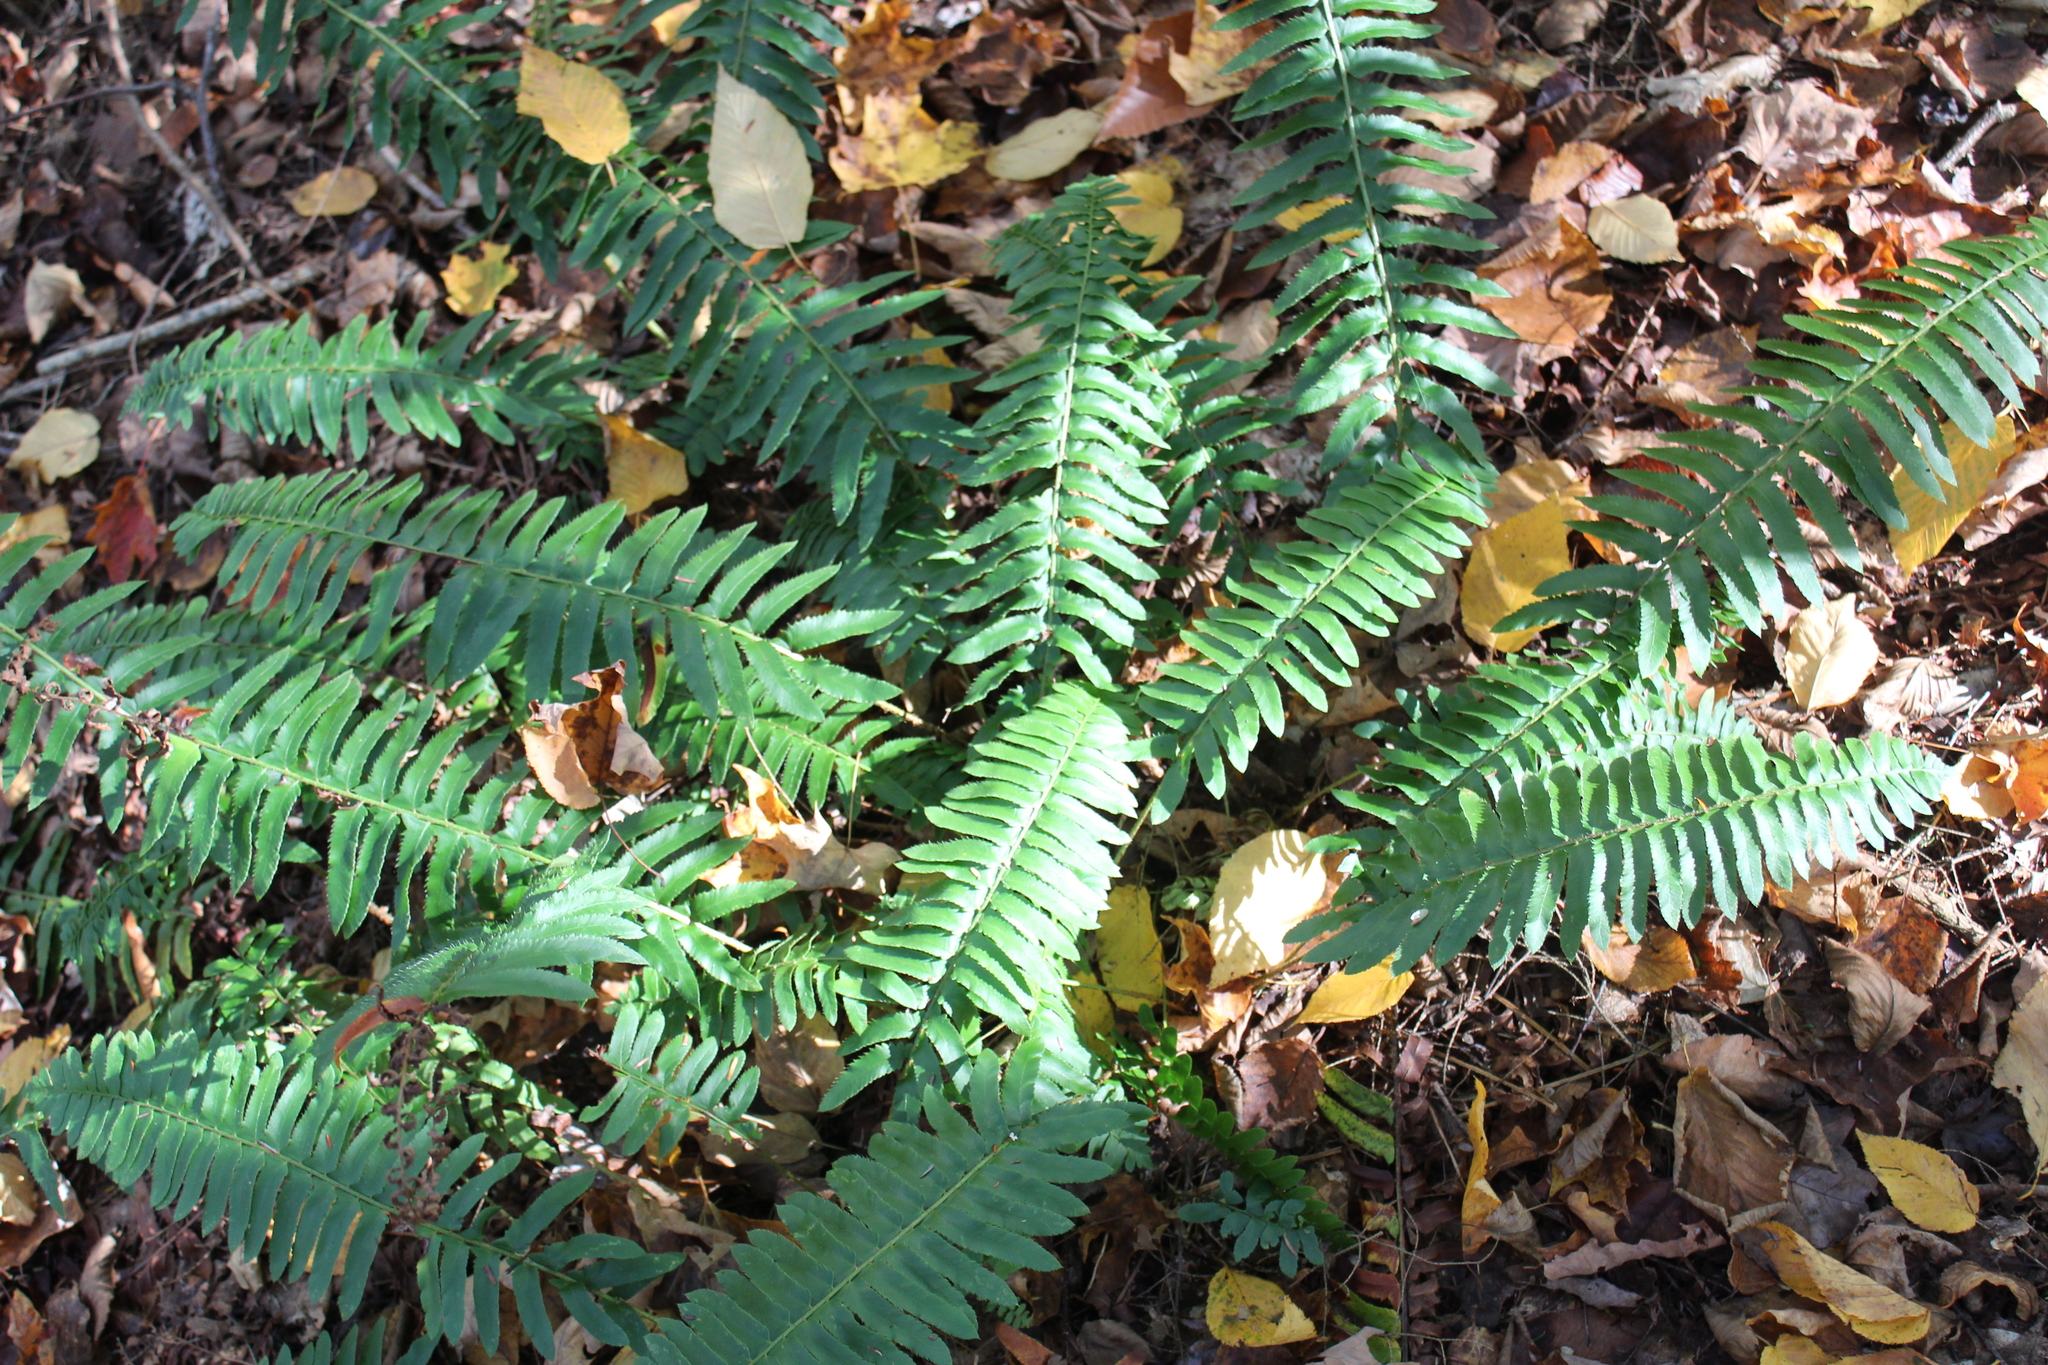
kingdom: Plantae
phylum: Tracheophyta
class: Polypodiopsida
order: Polypodiales
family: Dryopteridaceae
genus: Polystichum
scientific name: Polystichum acrostichoides
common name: Christmas fern
